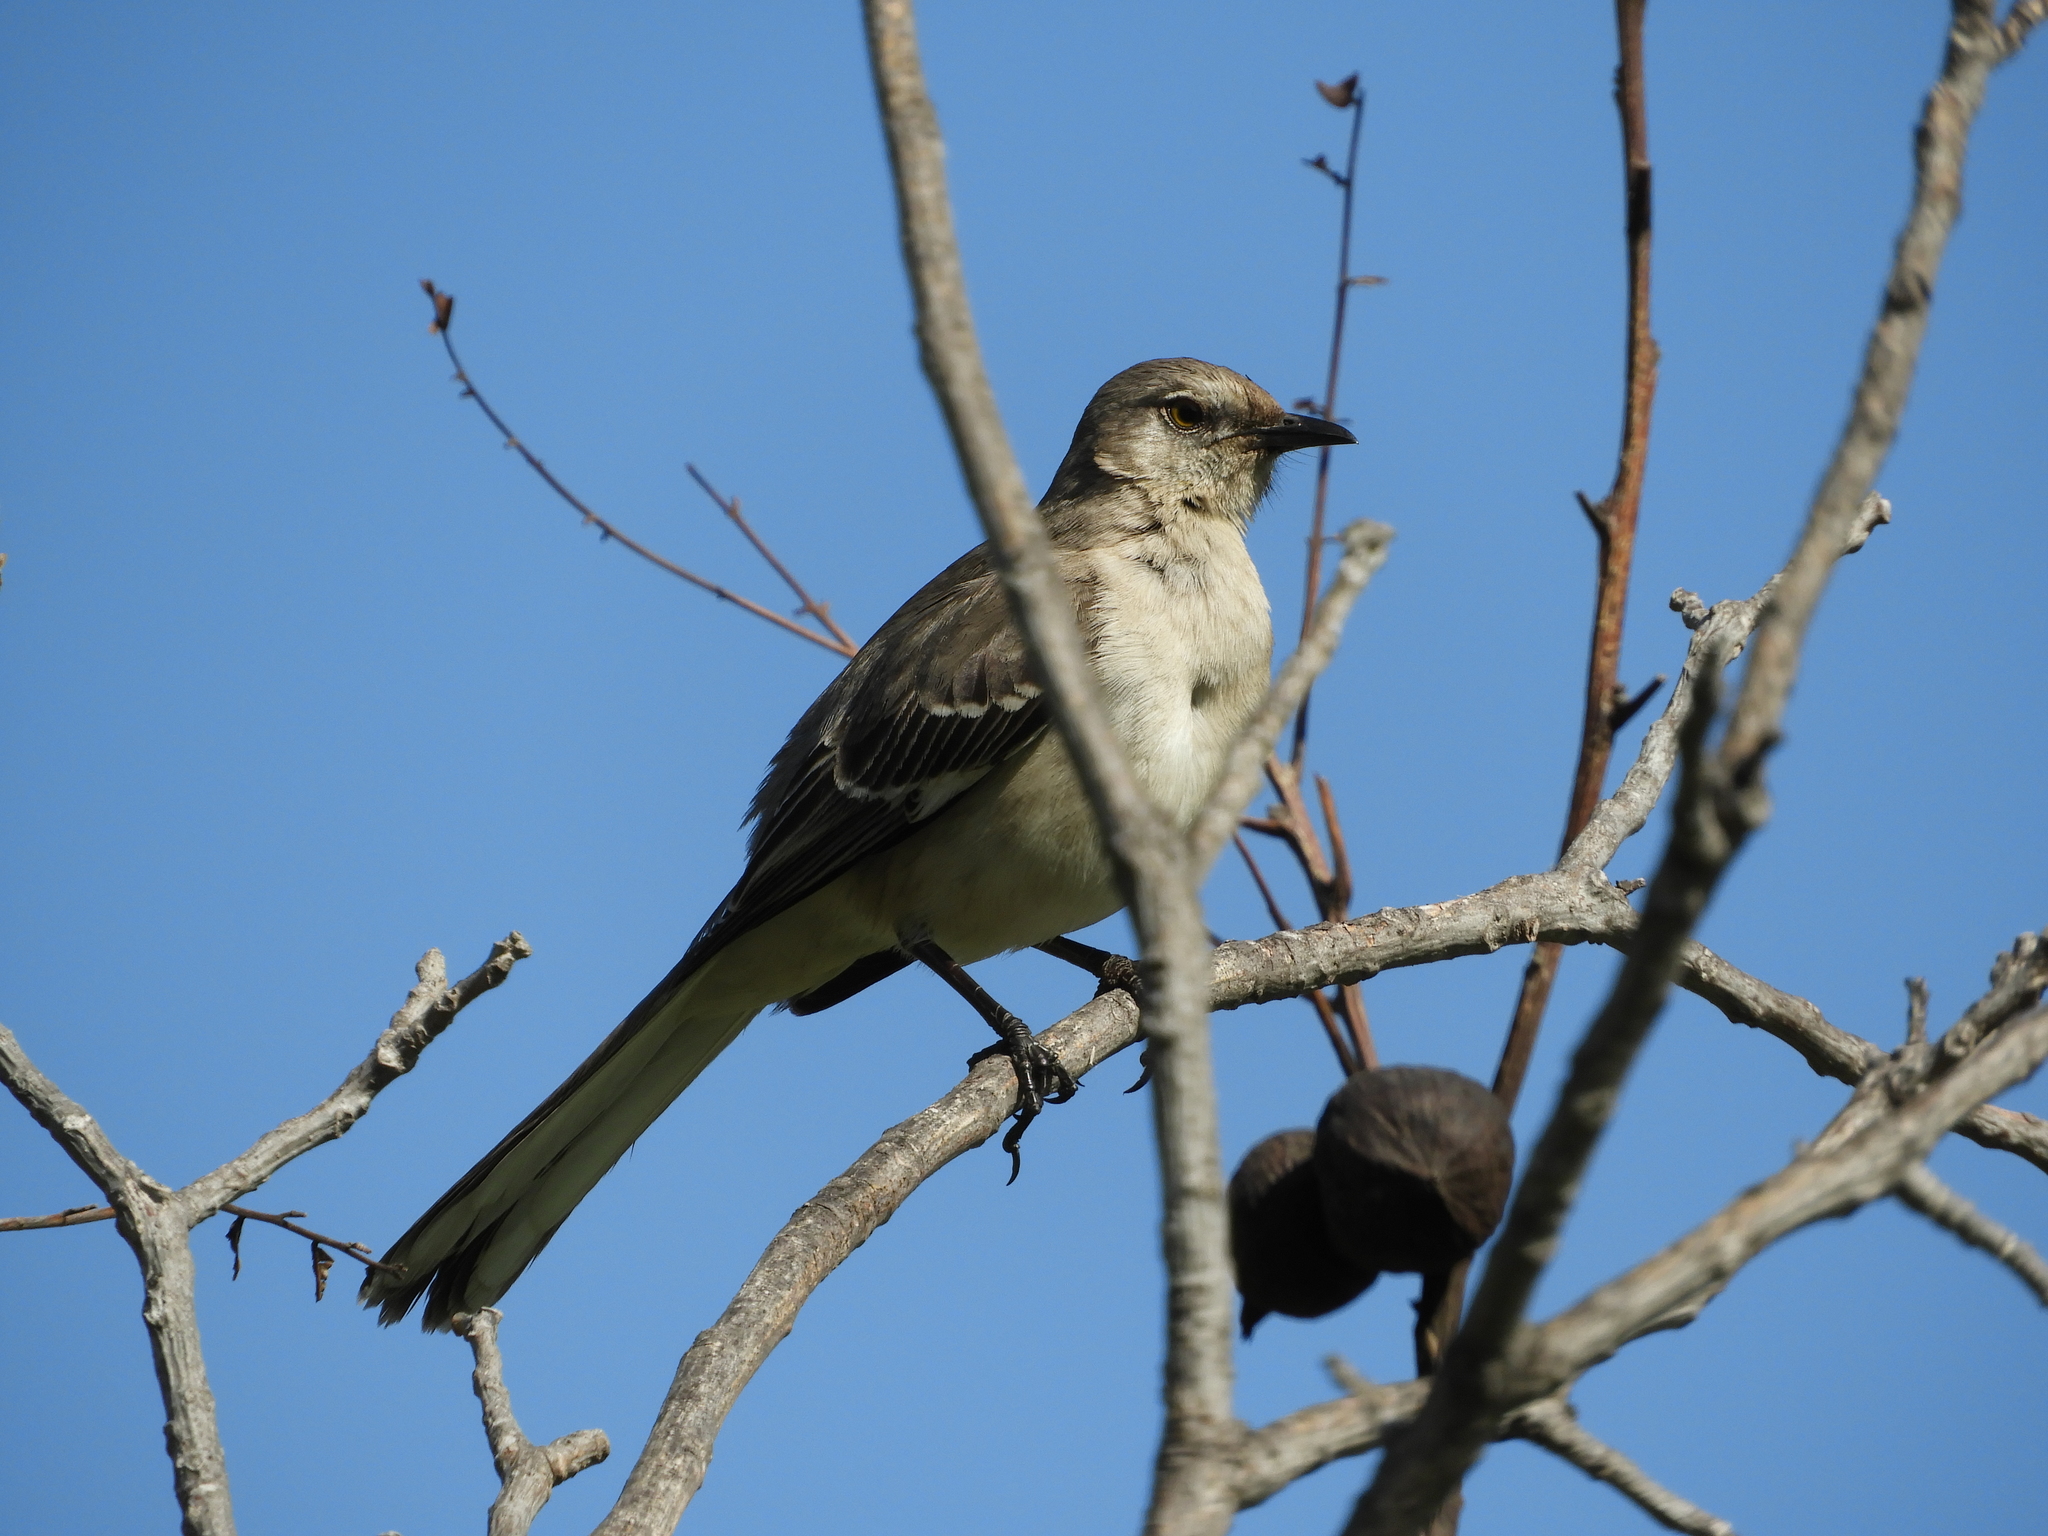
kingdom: Animalia
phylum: Chordata
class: Aves
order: Passeriformes
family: Mimidae
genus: Mimus
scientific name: Mimus polyglottos
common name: Northern mockingbird
